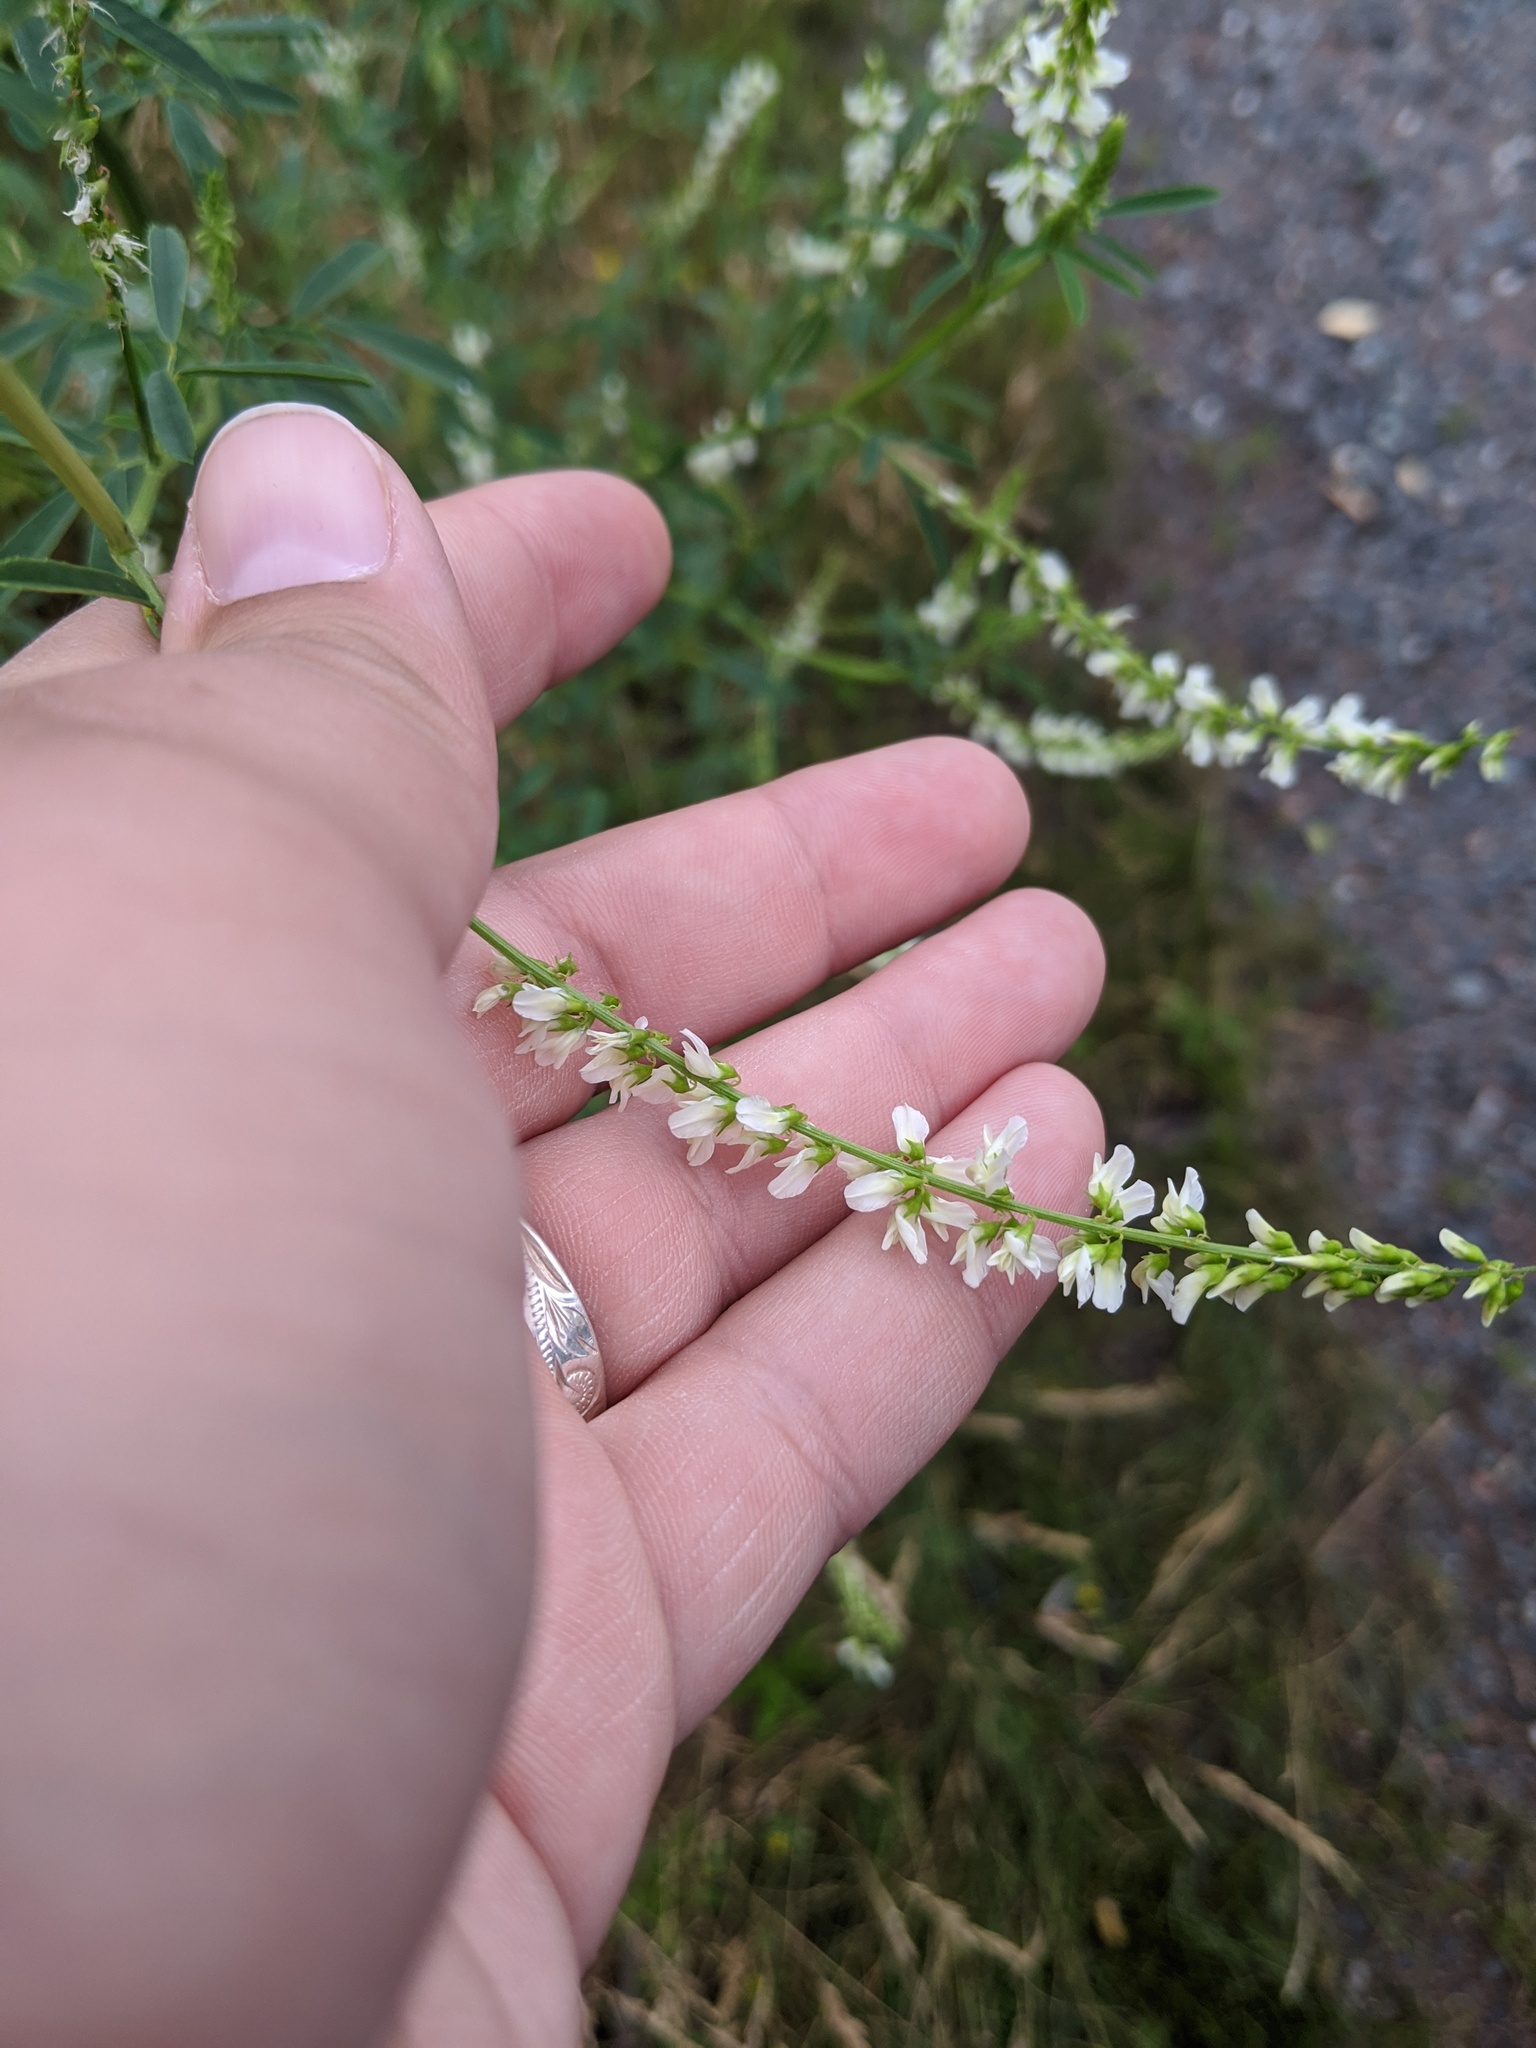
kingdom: Plantae
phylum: Tracheophyta
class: Magnoliopsida
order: Fabales
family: Fabaceae
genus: Melilotus
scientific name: Melilotus albus
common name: White melilot
